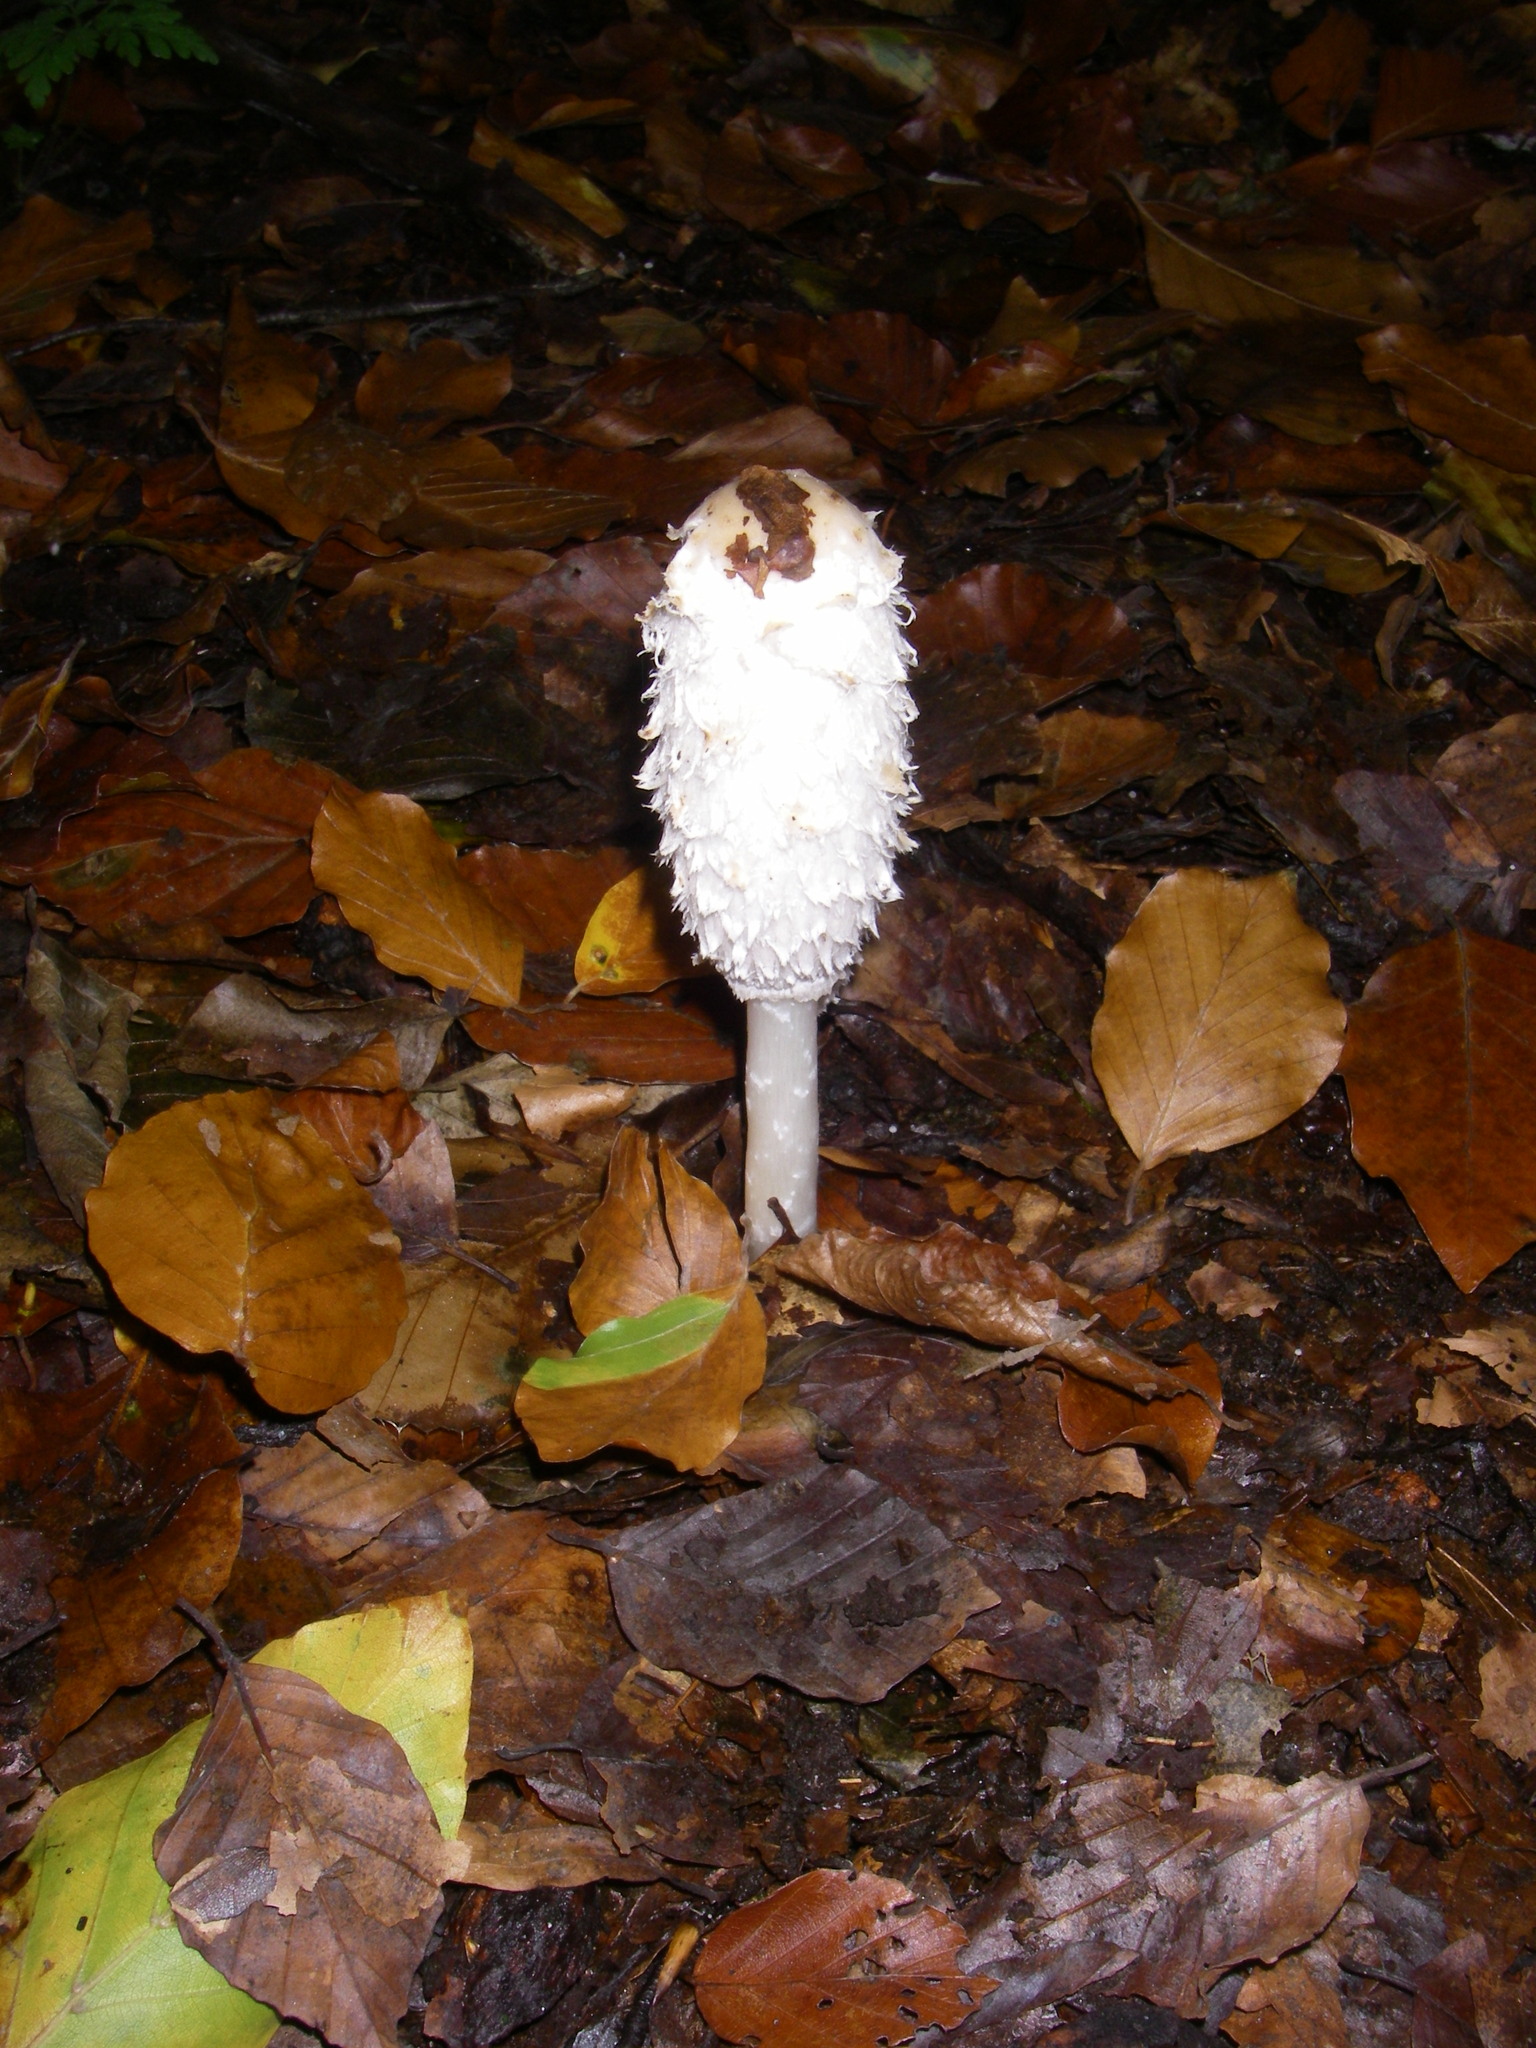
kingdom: Fungi
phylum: Basidiomycota
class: Agaricomycetes
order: Agaricales
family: Agaricaceae
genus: Coprinus
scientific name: Coprinus comatus
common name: Lawyer's wig
